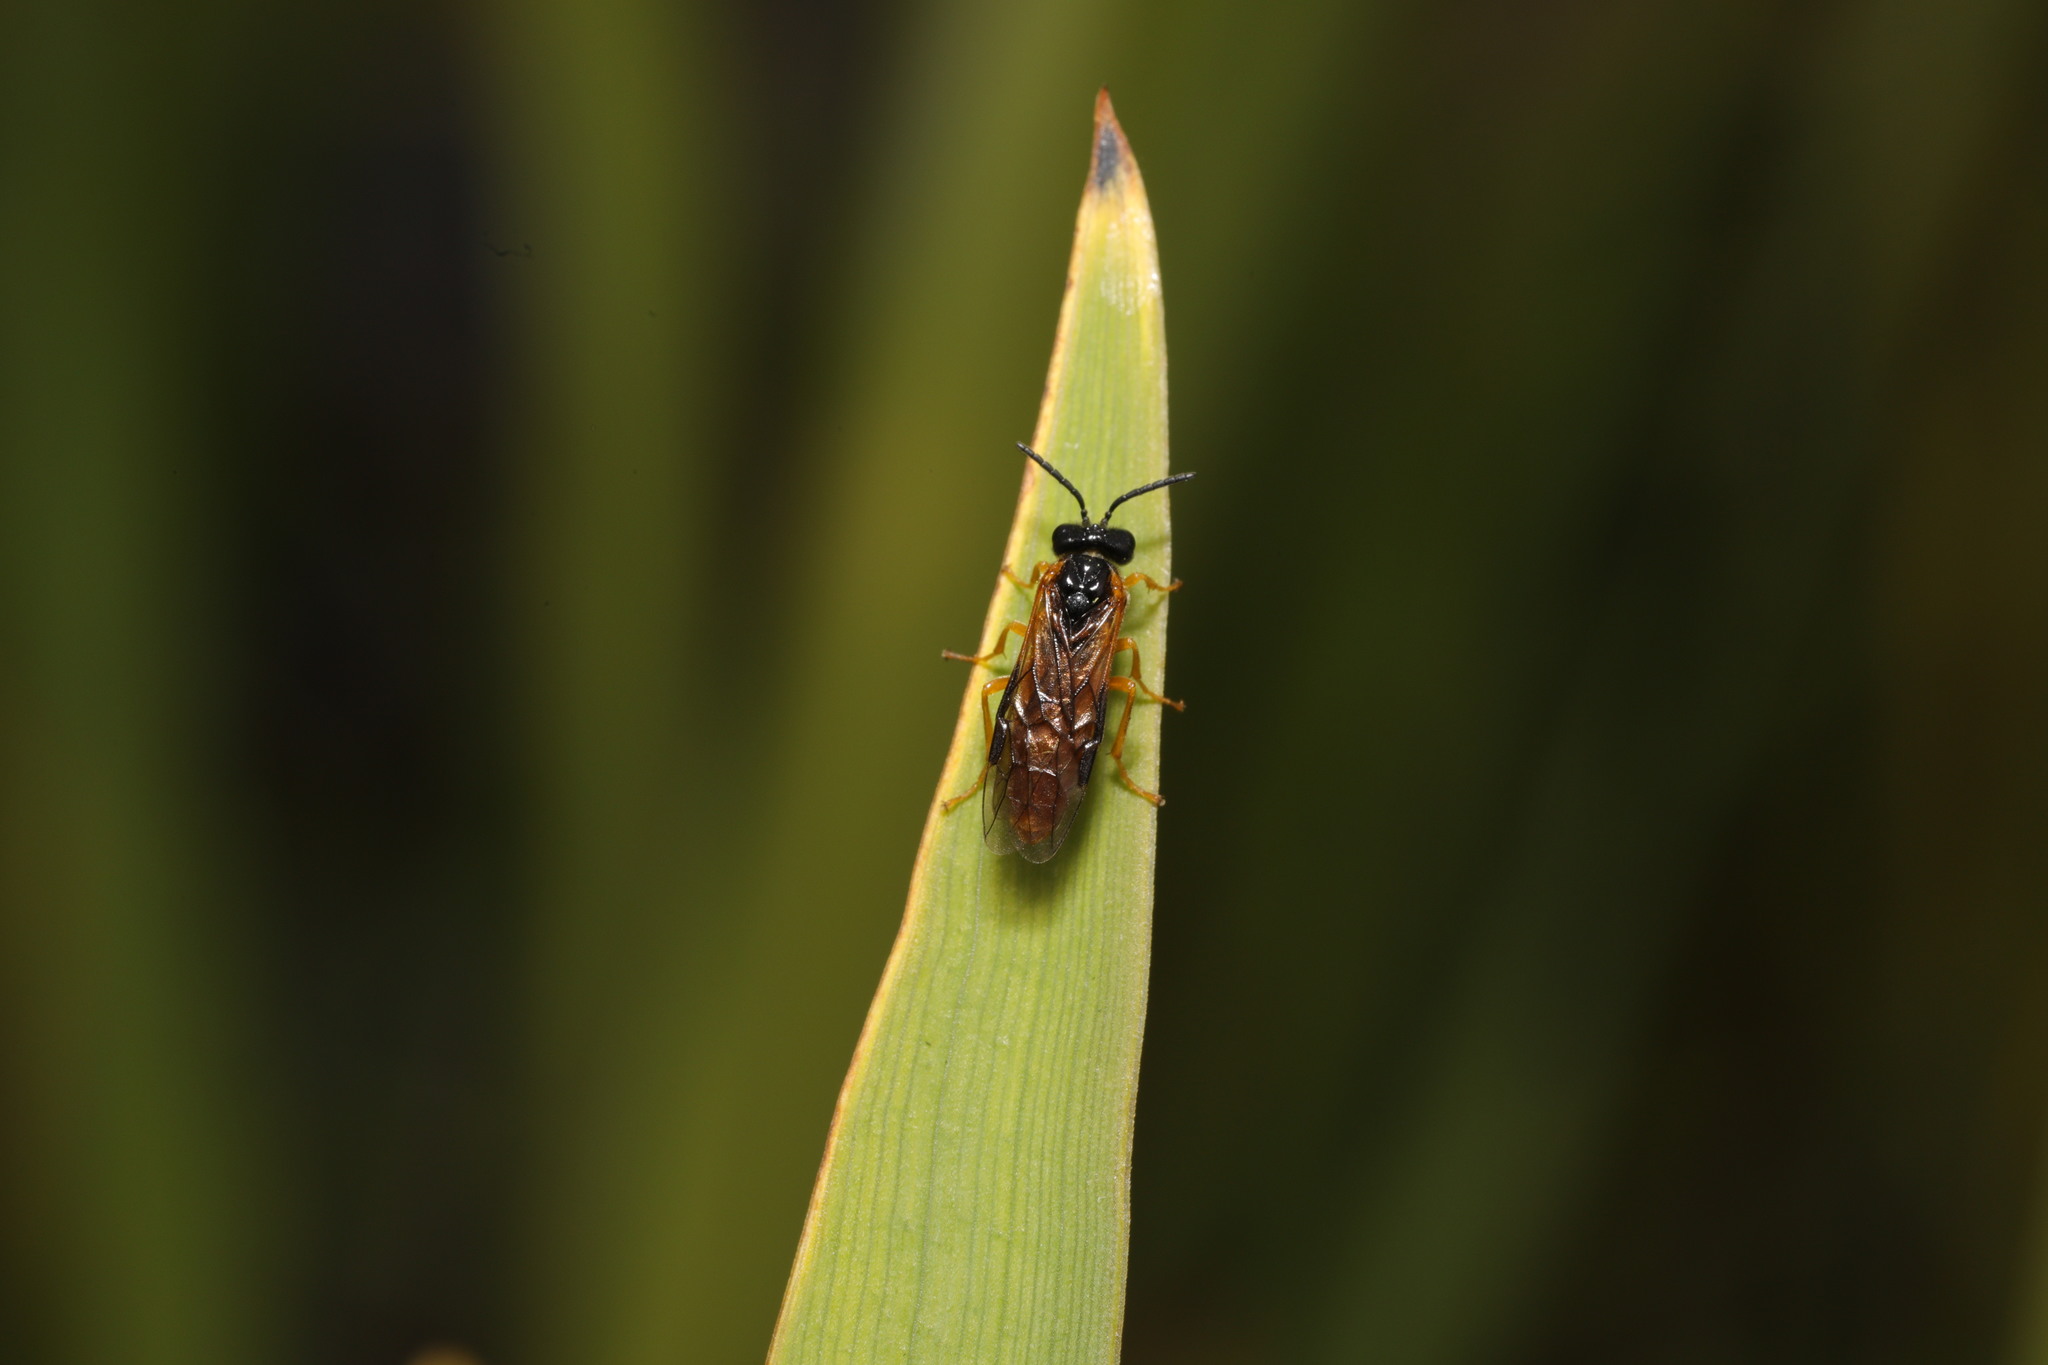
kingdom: Animalia
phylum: Arthropoda
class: Insecta
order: Hymenoptera
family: Tenthredinidae
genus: Selandria
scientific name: Selandria serva
